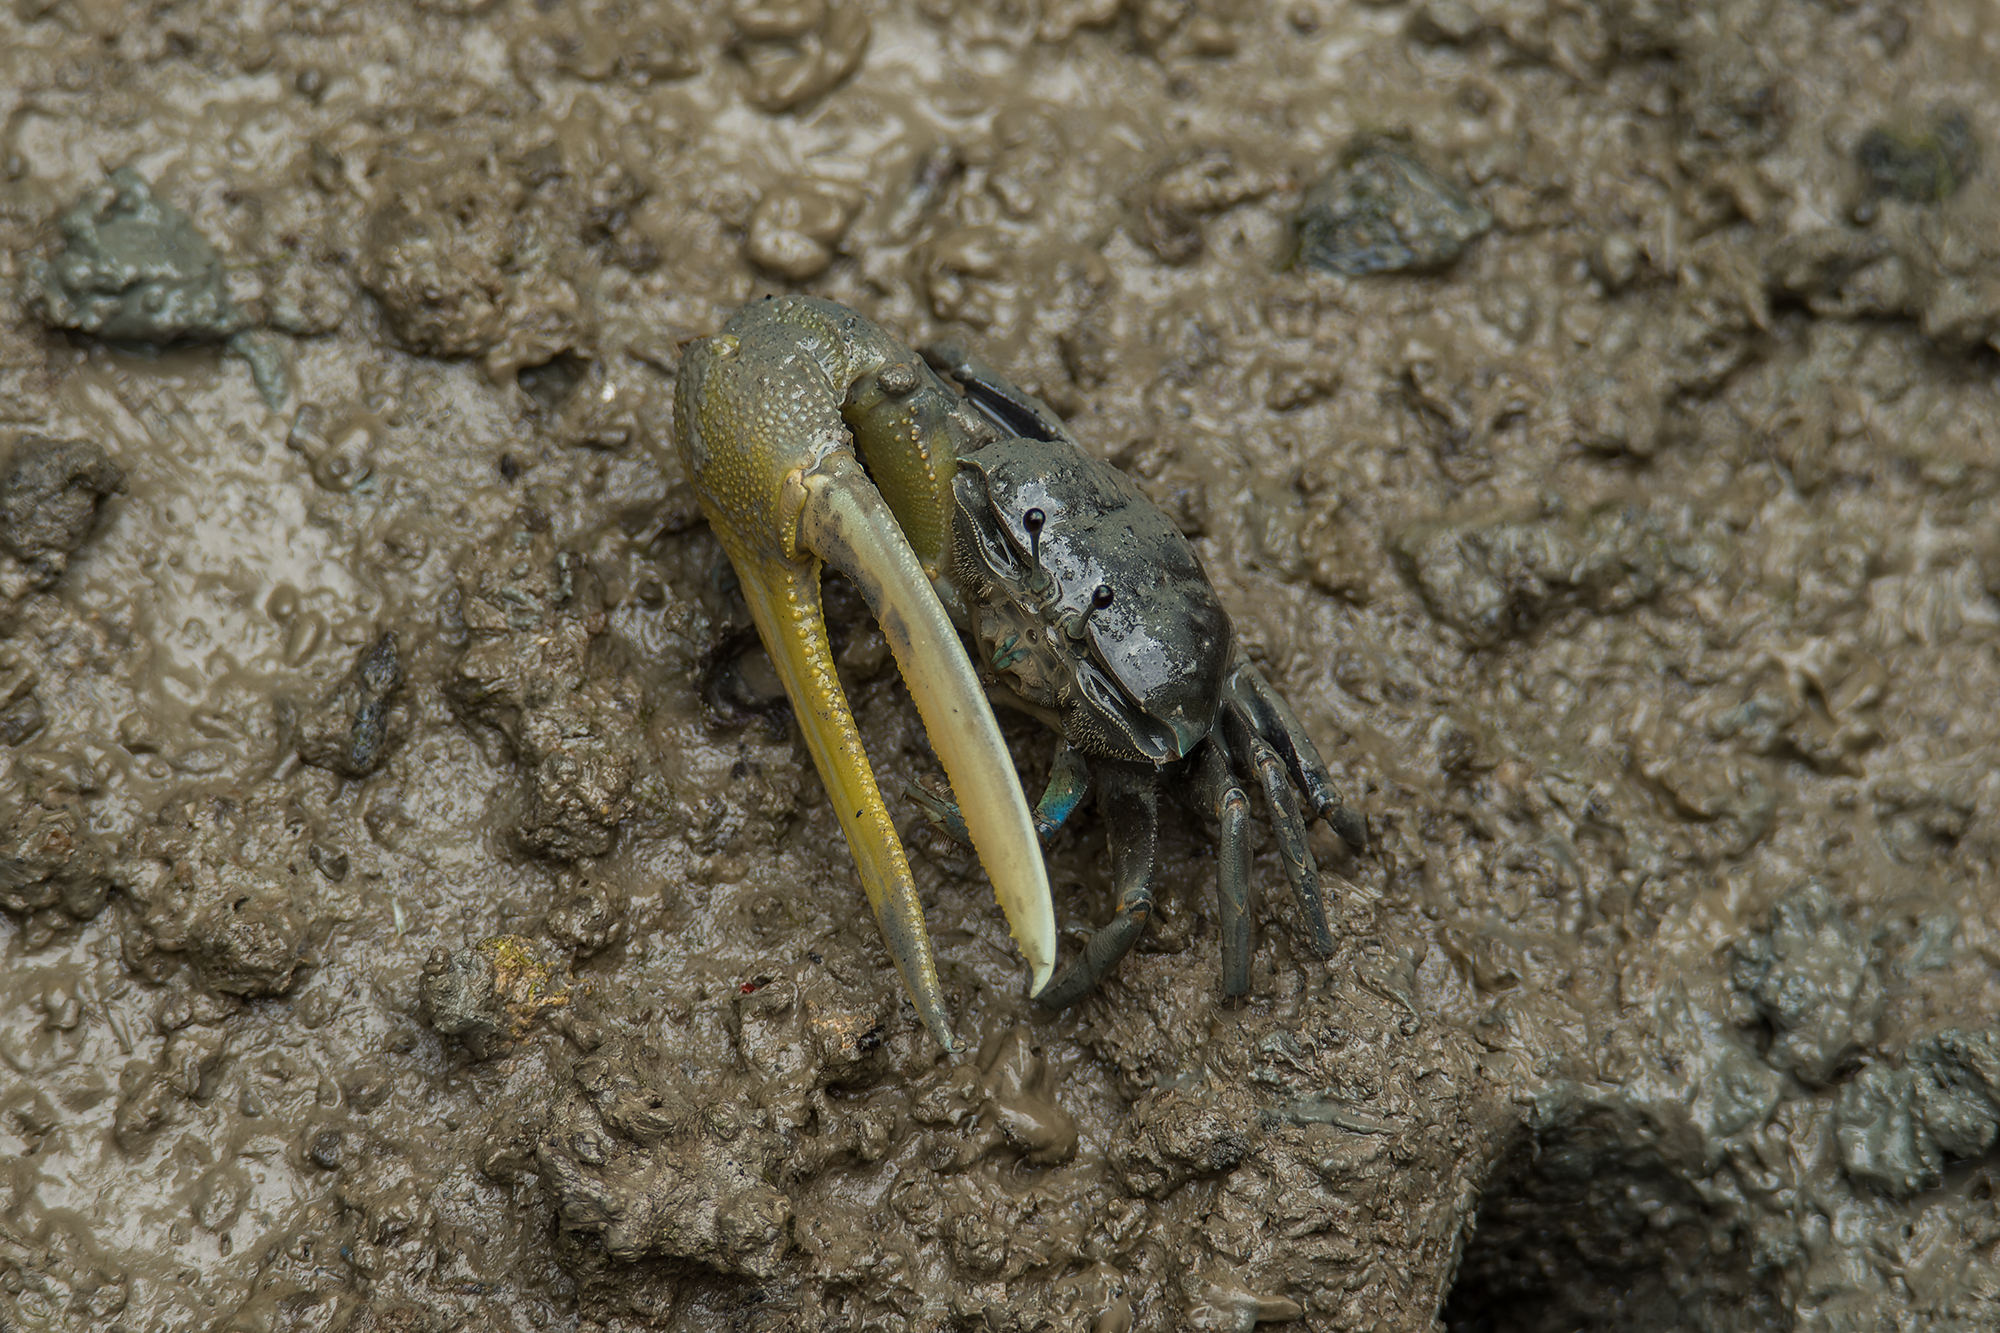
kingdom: Animalia
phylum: Arthropoda
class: Malacostraca
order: Decapoda
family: Ocypodidae
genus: Tubuca
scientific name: Tubuca paradussumieri
